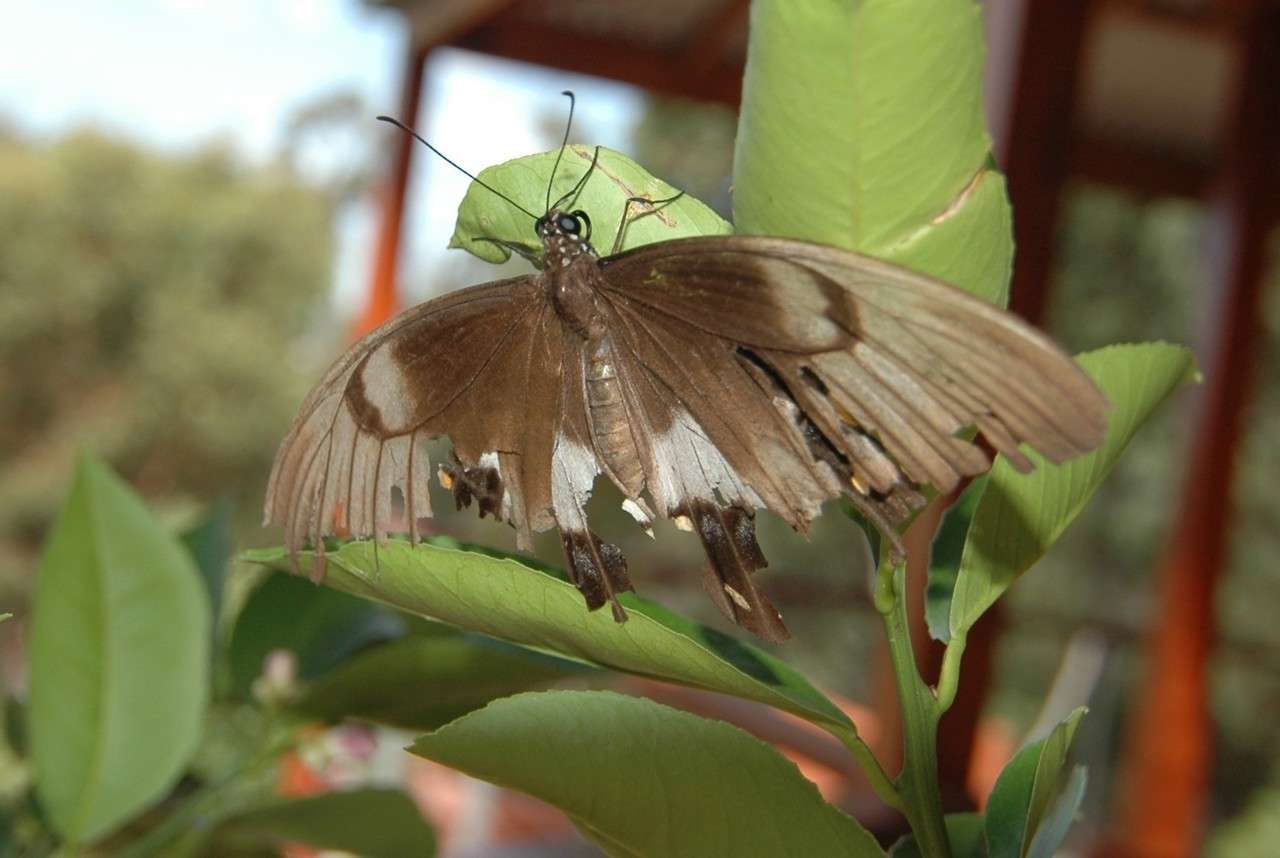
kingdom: Animalia
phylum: Arthropoda
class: Insecta
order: Lepidoptera
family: Papilionidae
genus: Papilio
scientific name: Papilio aegeus
